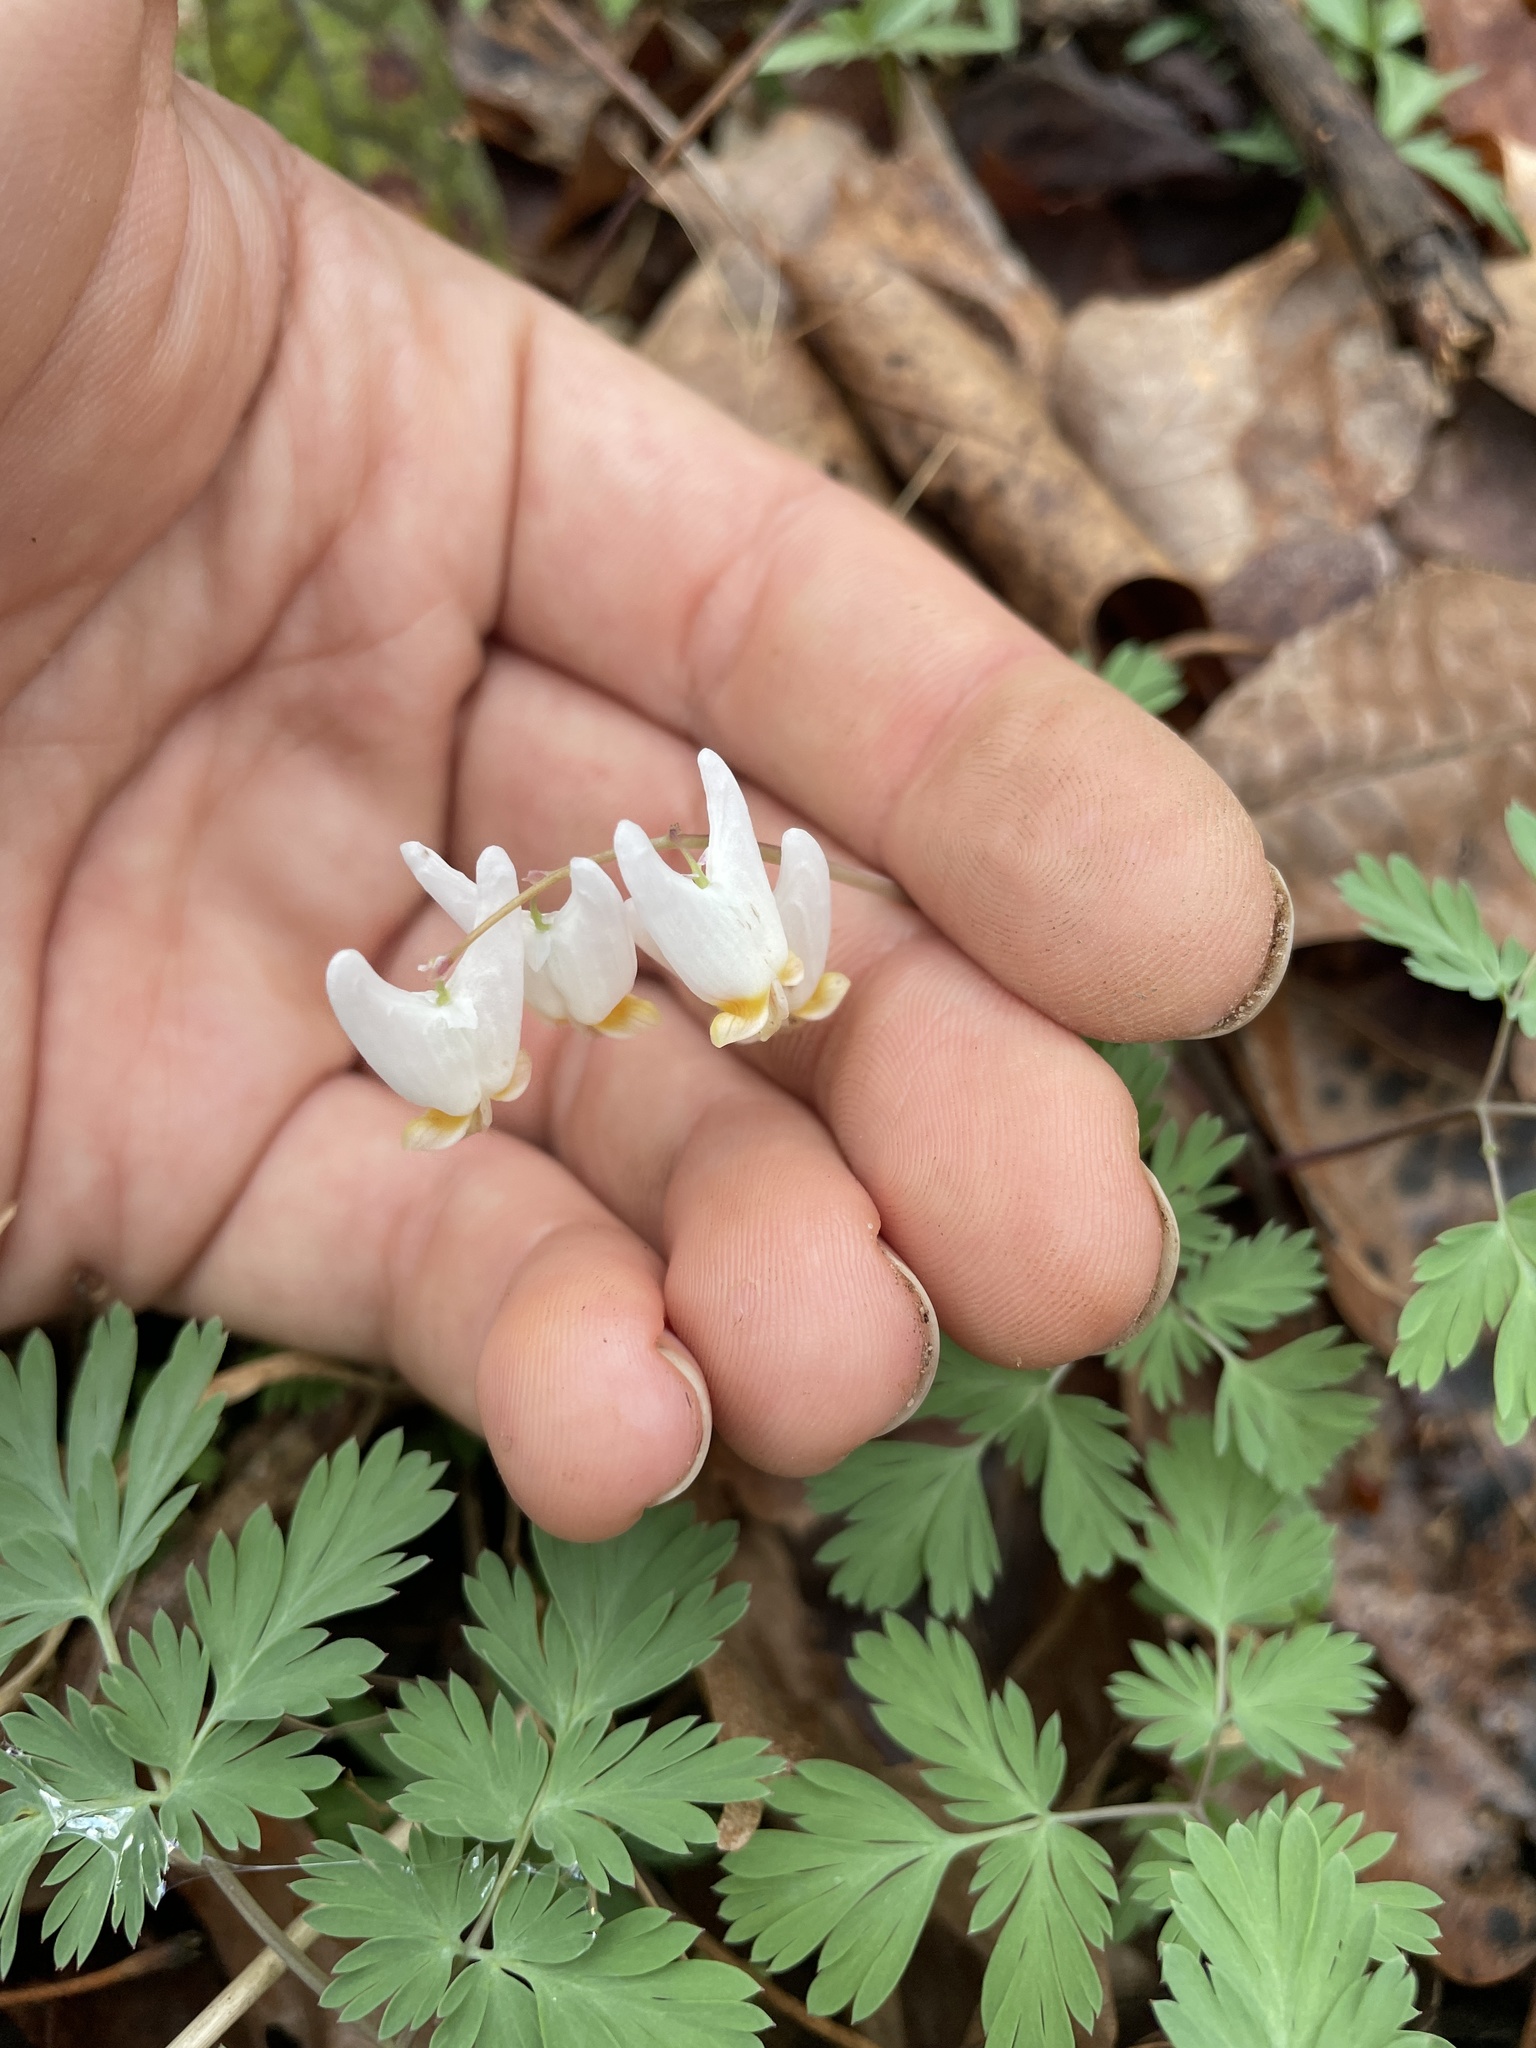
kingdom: Plantae
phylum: Tracheophyta
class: Magnoliopsida
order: Ranunculales
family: Papaveraceae
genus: Dicentra
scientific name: Dicentra cucullaria
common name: Dutchman's breeches
